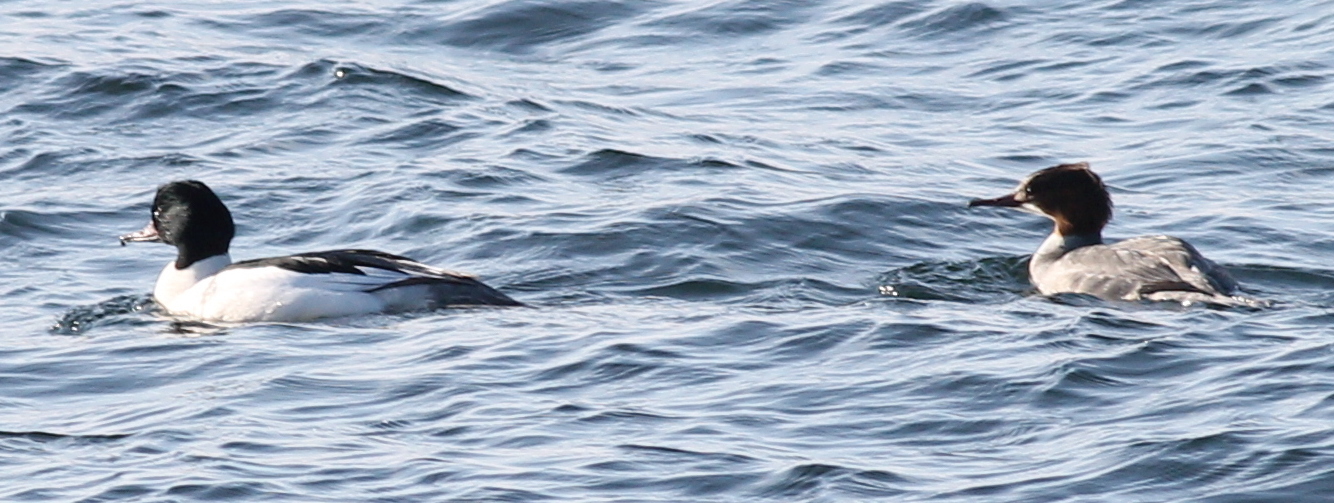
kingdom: Animalia
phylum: Chordata
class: Aves
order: Anseriformes
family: Anatidae
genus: Mergus
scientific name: Mergus merganser
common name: Common merganser
